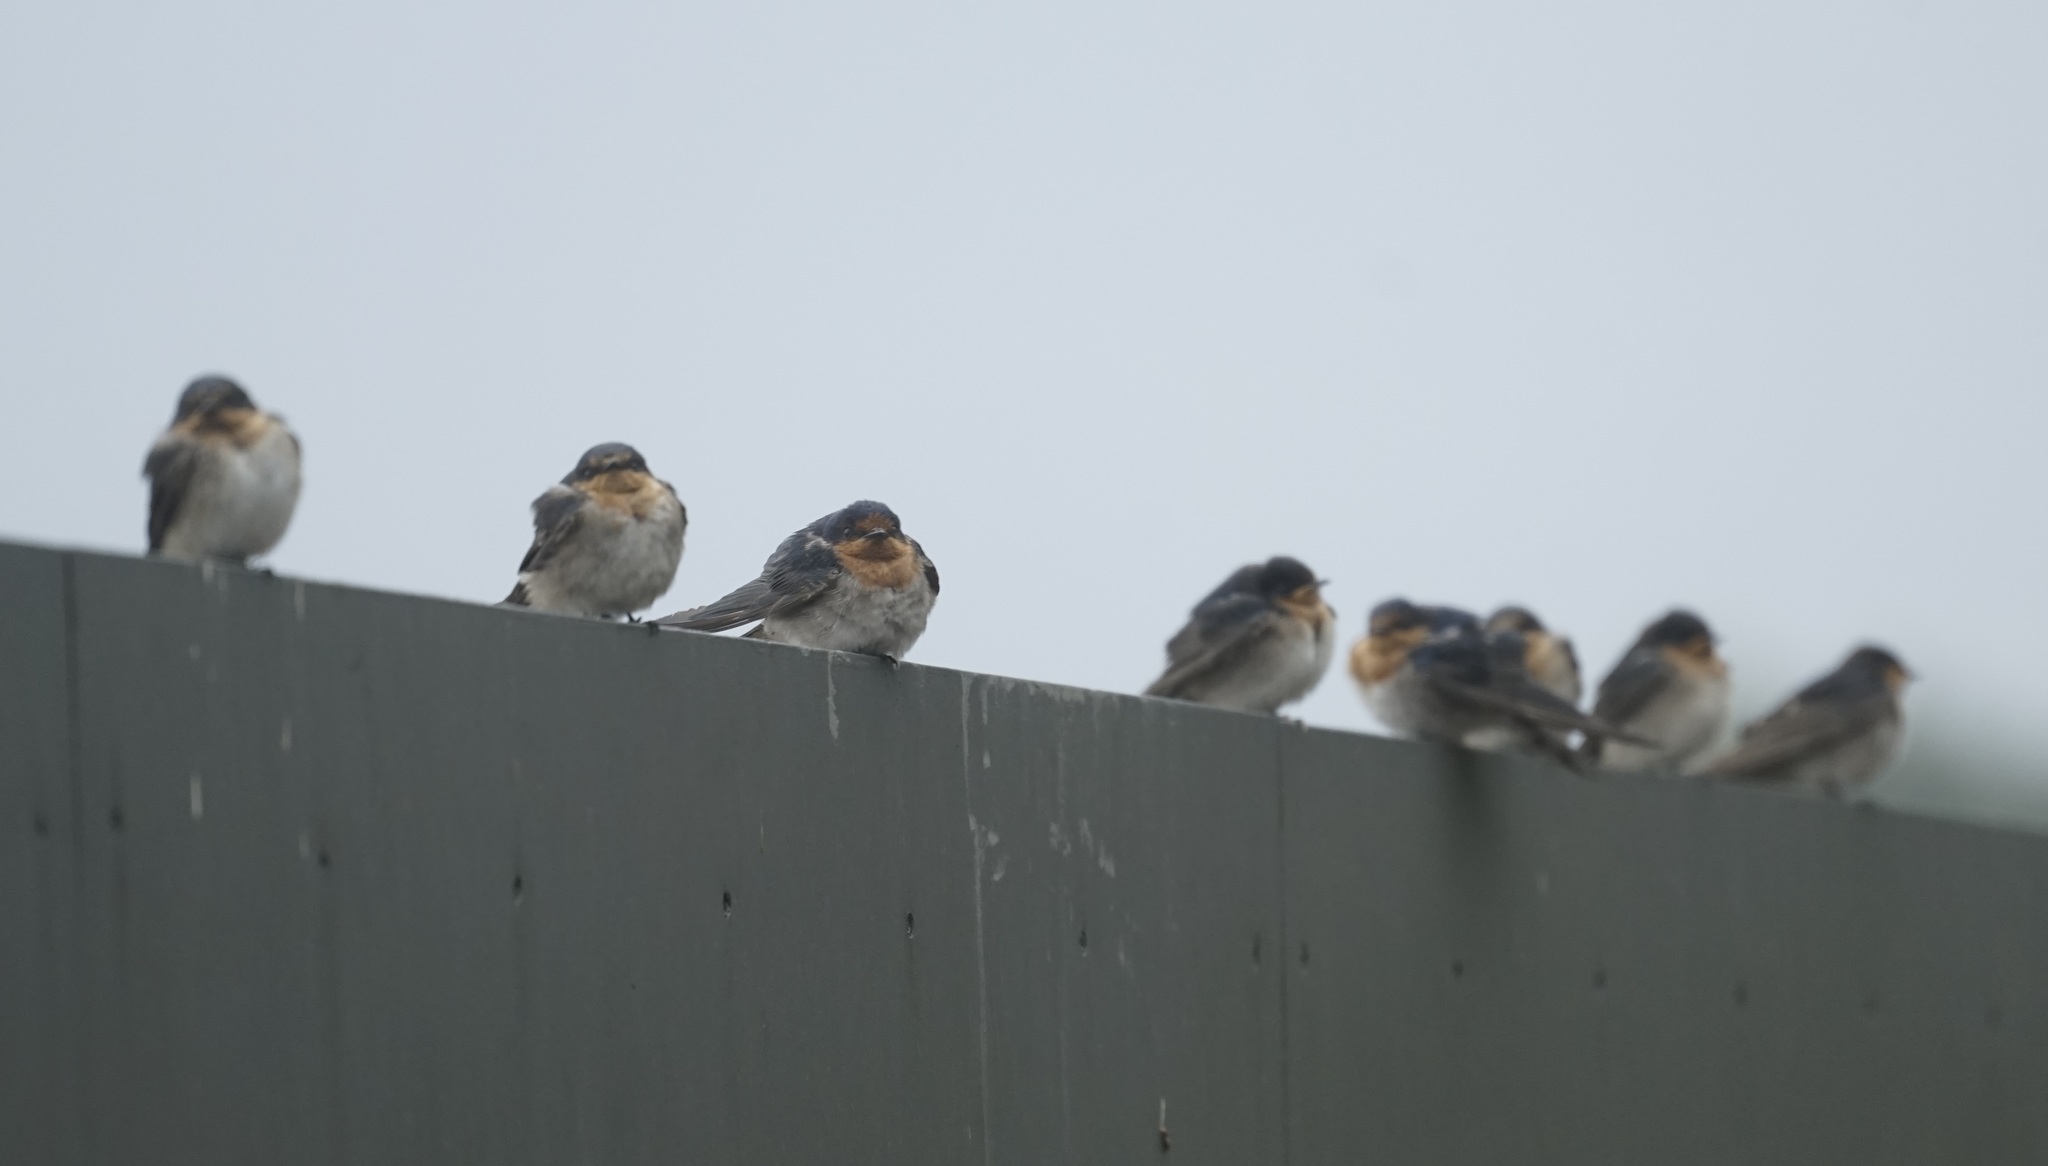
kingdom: Animalia
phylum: Chordata
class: Aves
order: Passeriformes
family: Hirundinidae
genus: Hirundo
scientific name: Hirundo neoxena
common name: Welcome swallow
